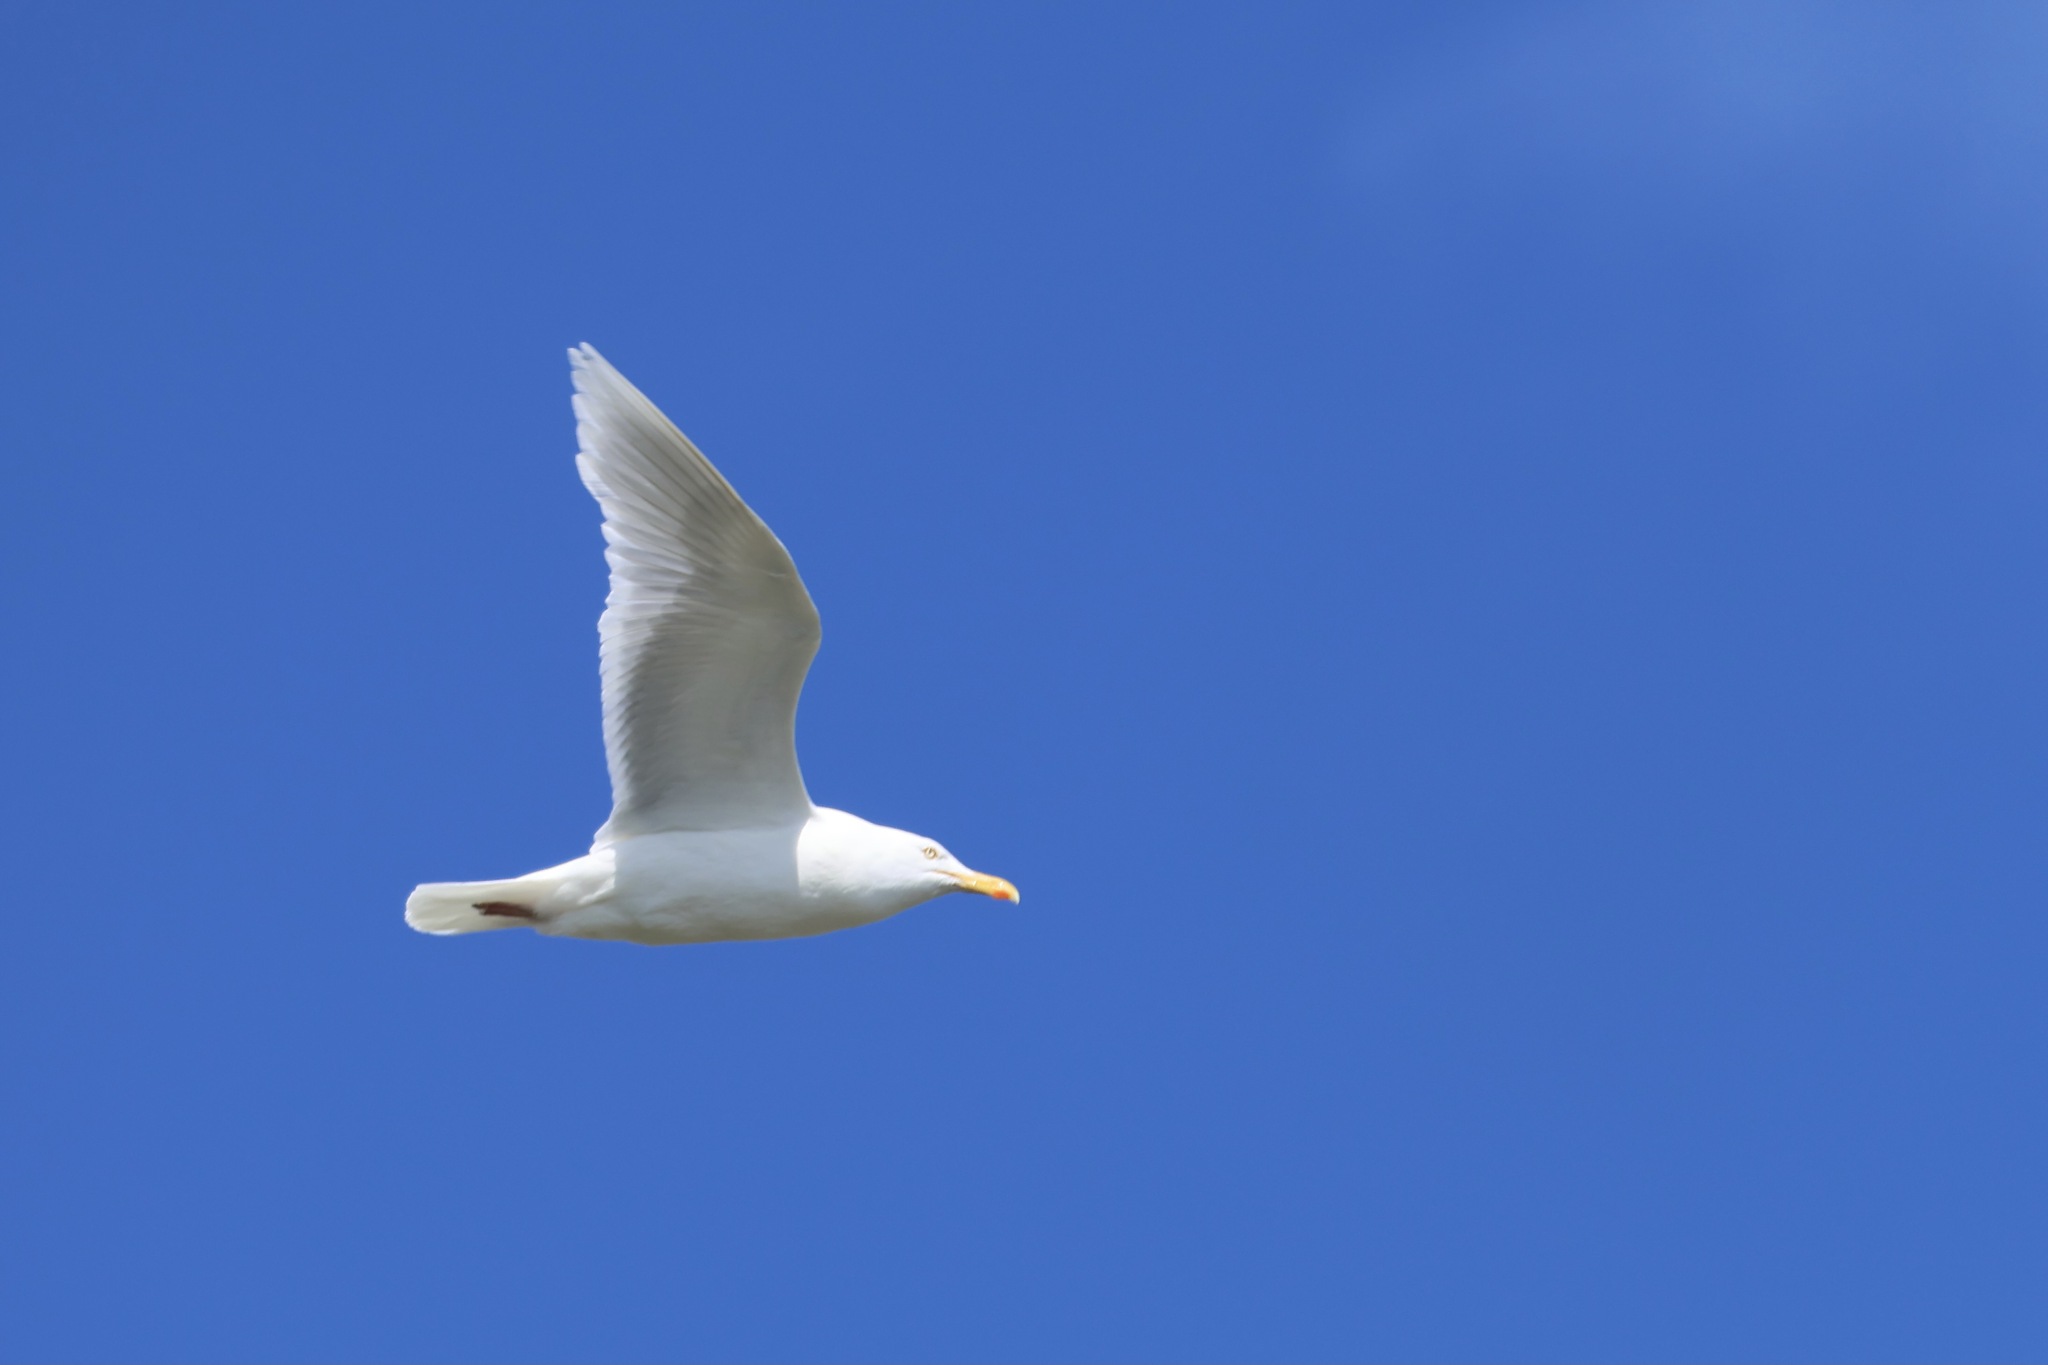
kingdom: Animalia
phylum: Chordata
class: Aves
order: Charadriiformes
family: Laridae
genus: Larus
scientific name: Larus hyperboreus
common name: Glaucous gull
